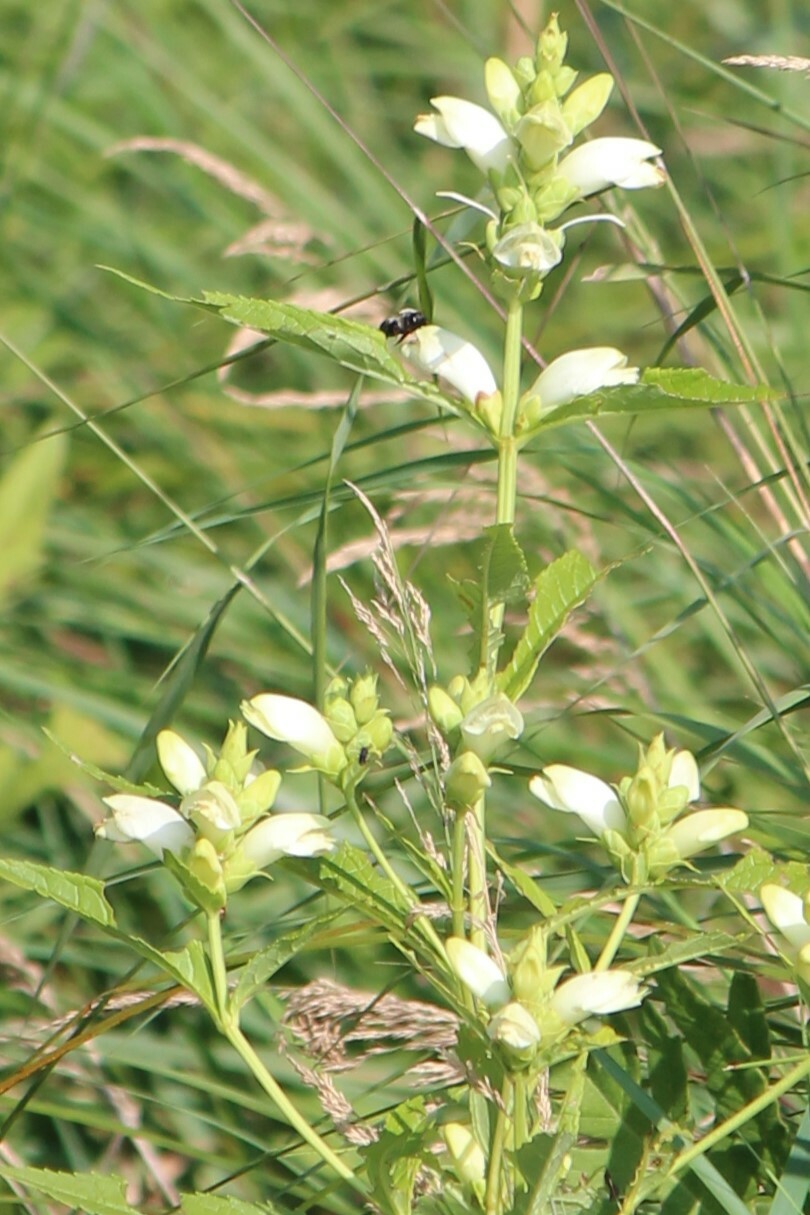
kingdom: Plantae
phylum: Tracheophyta
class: Magnoliopsida
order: Lamiales
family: Plantaginaceae
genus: Chelone
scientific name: Chelone glabra
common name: Snakehead
